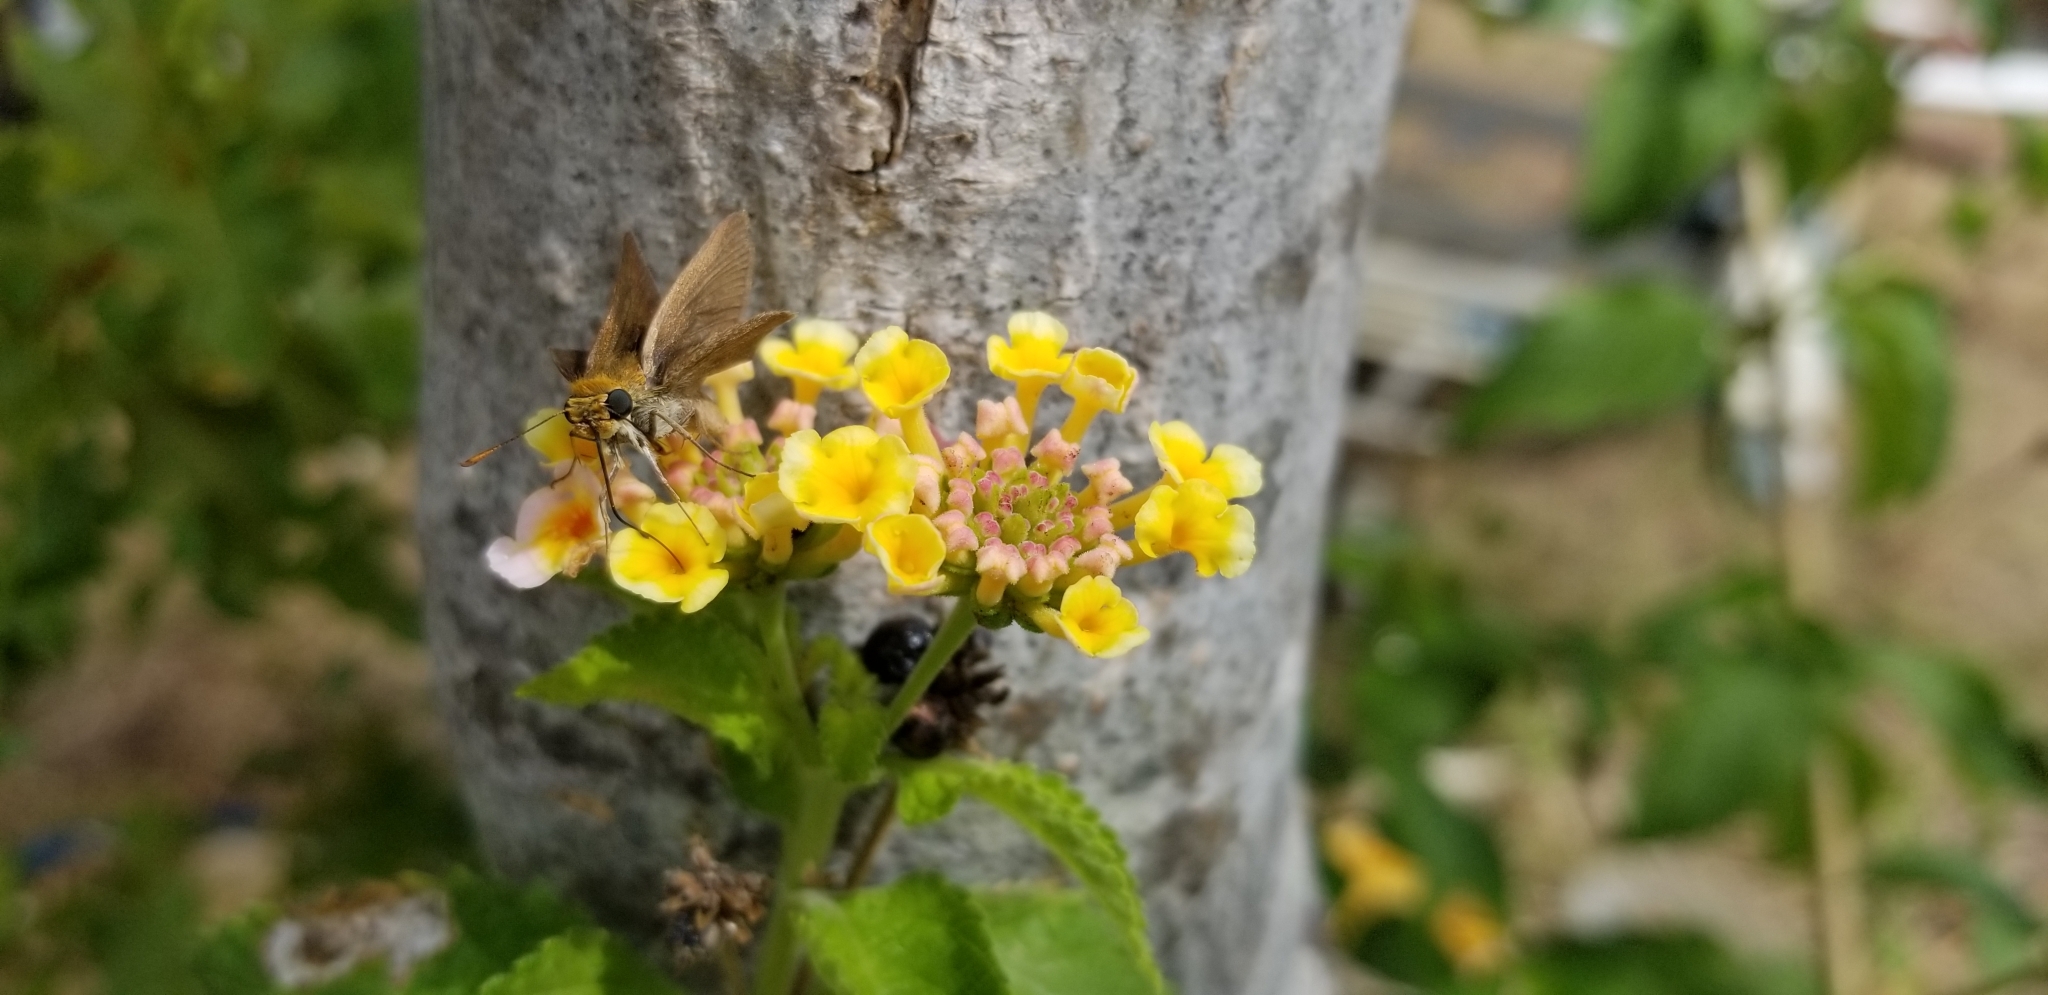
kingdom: Animalia
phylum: Arthropoda
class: Insecta
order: Lepidoptera
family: Hesperiidae
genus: Euphyes
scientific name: Euphyes vestris
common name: Dun skipper
